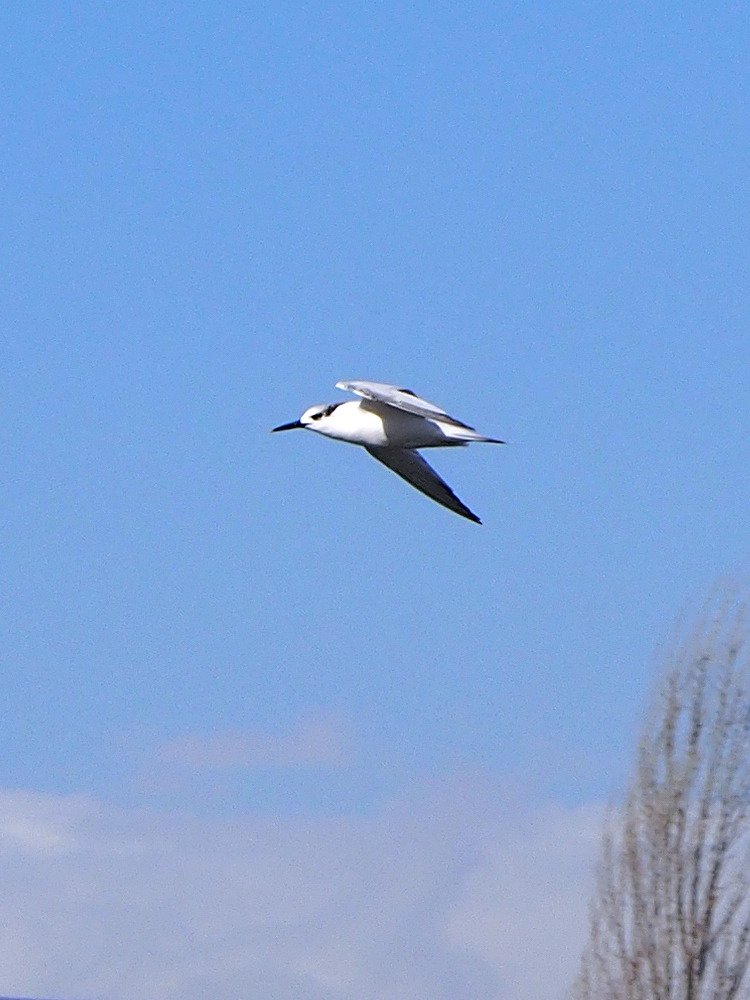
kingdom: Animalia
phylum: Chordata
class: Aves
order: Charadriiformes
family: Laridae
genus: Thalasseus
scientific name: Thalasseus sandvicensis
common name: Sandwich tern
